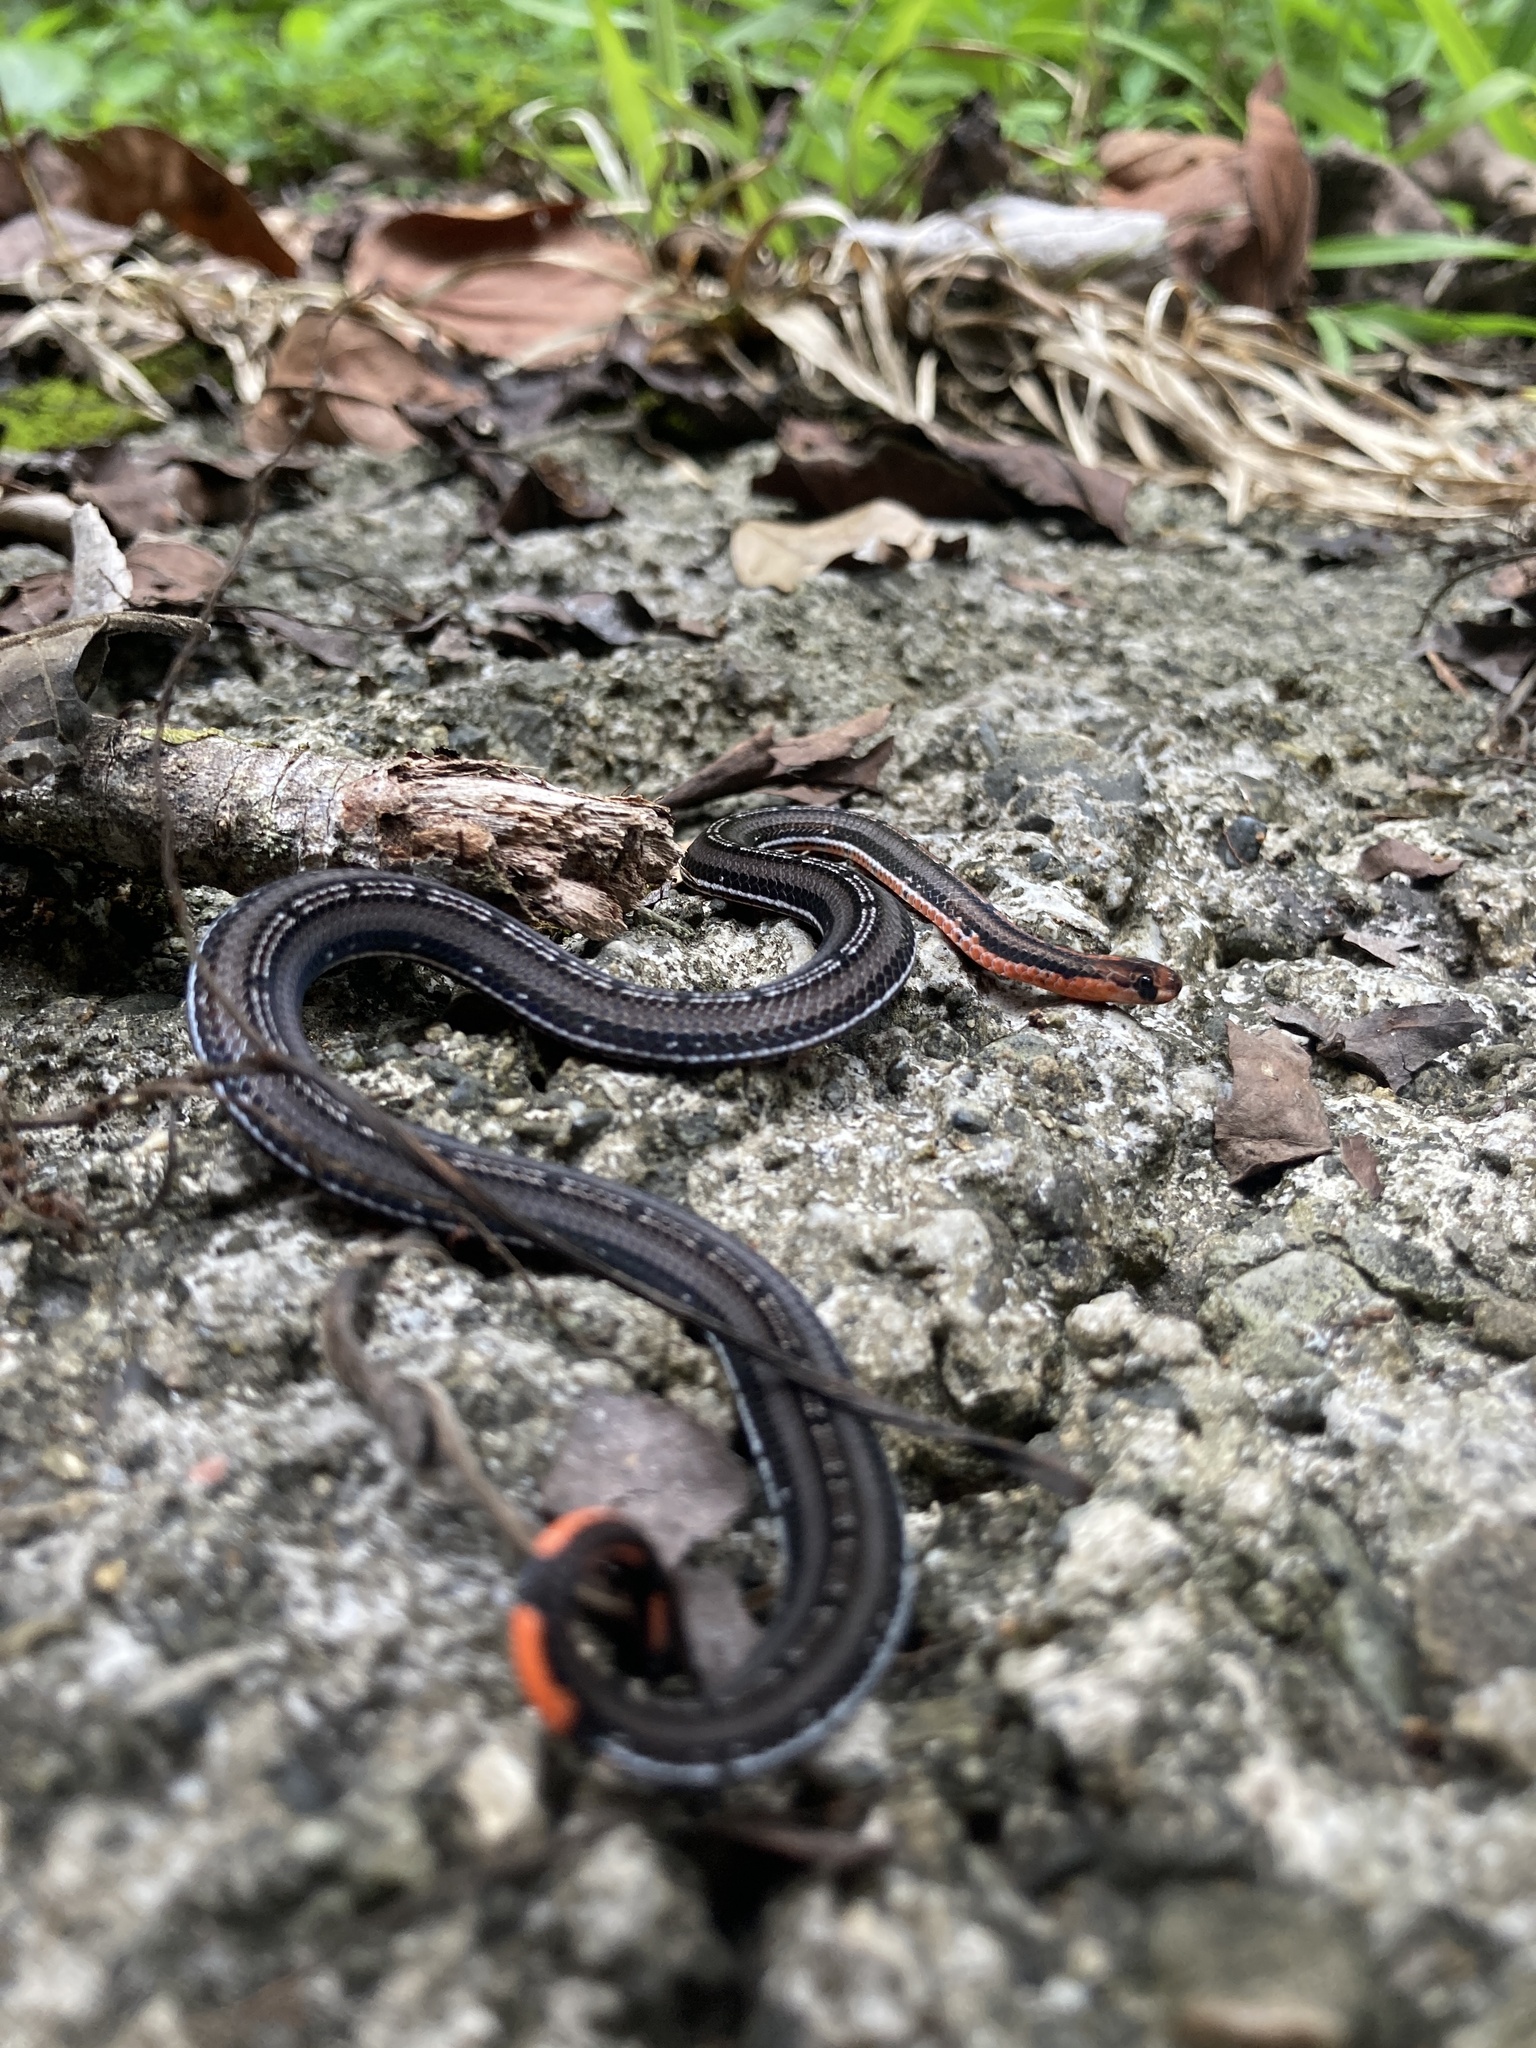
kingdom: Animalia
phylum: Chordata
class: Squamata
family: Elapidae
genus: Calliophis
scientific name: Calliophis nigrotaeniatus
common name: Banded malaysian coral snake
